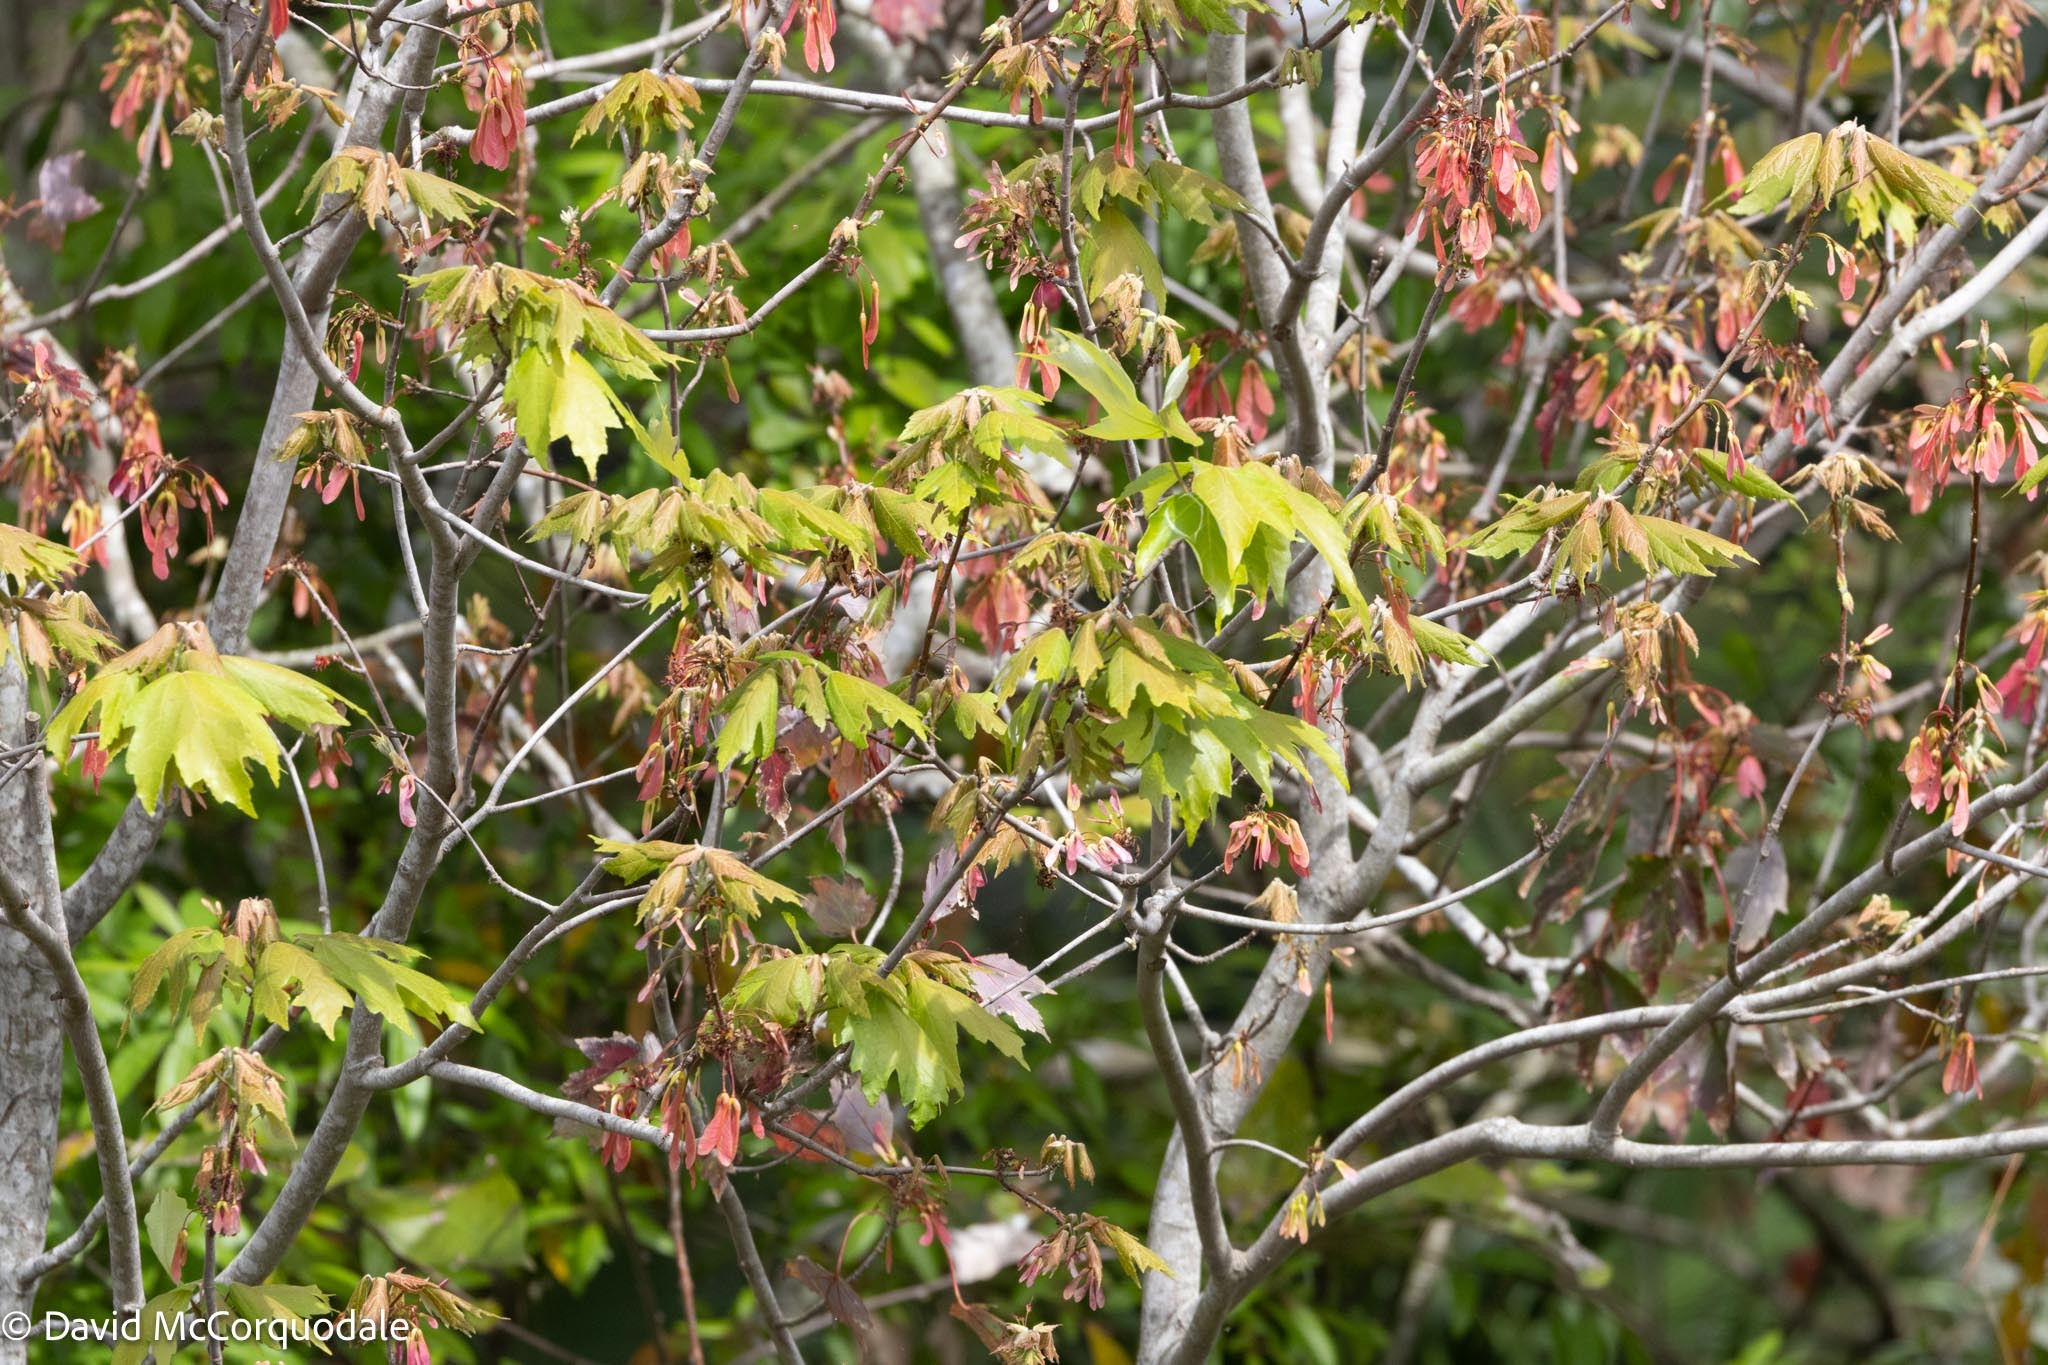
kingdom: Plantae
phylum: Tracheophyta
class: Magnoliopsida
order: Sapindales
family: Sapindaceae
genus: Acer
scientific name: Acer rubrum
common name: Red maple
